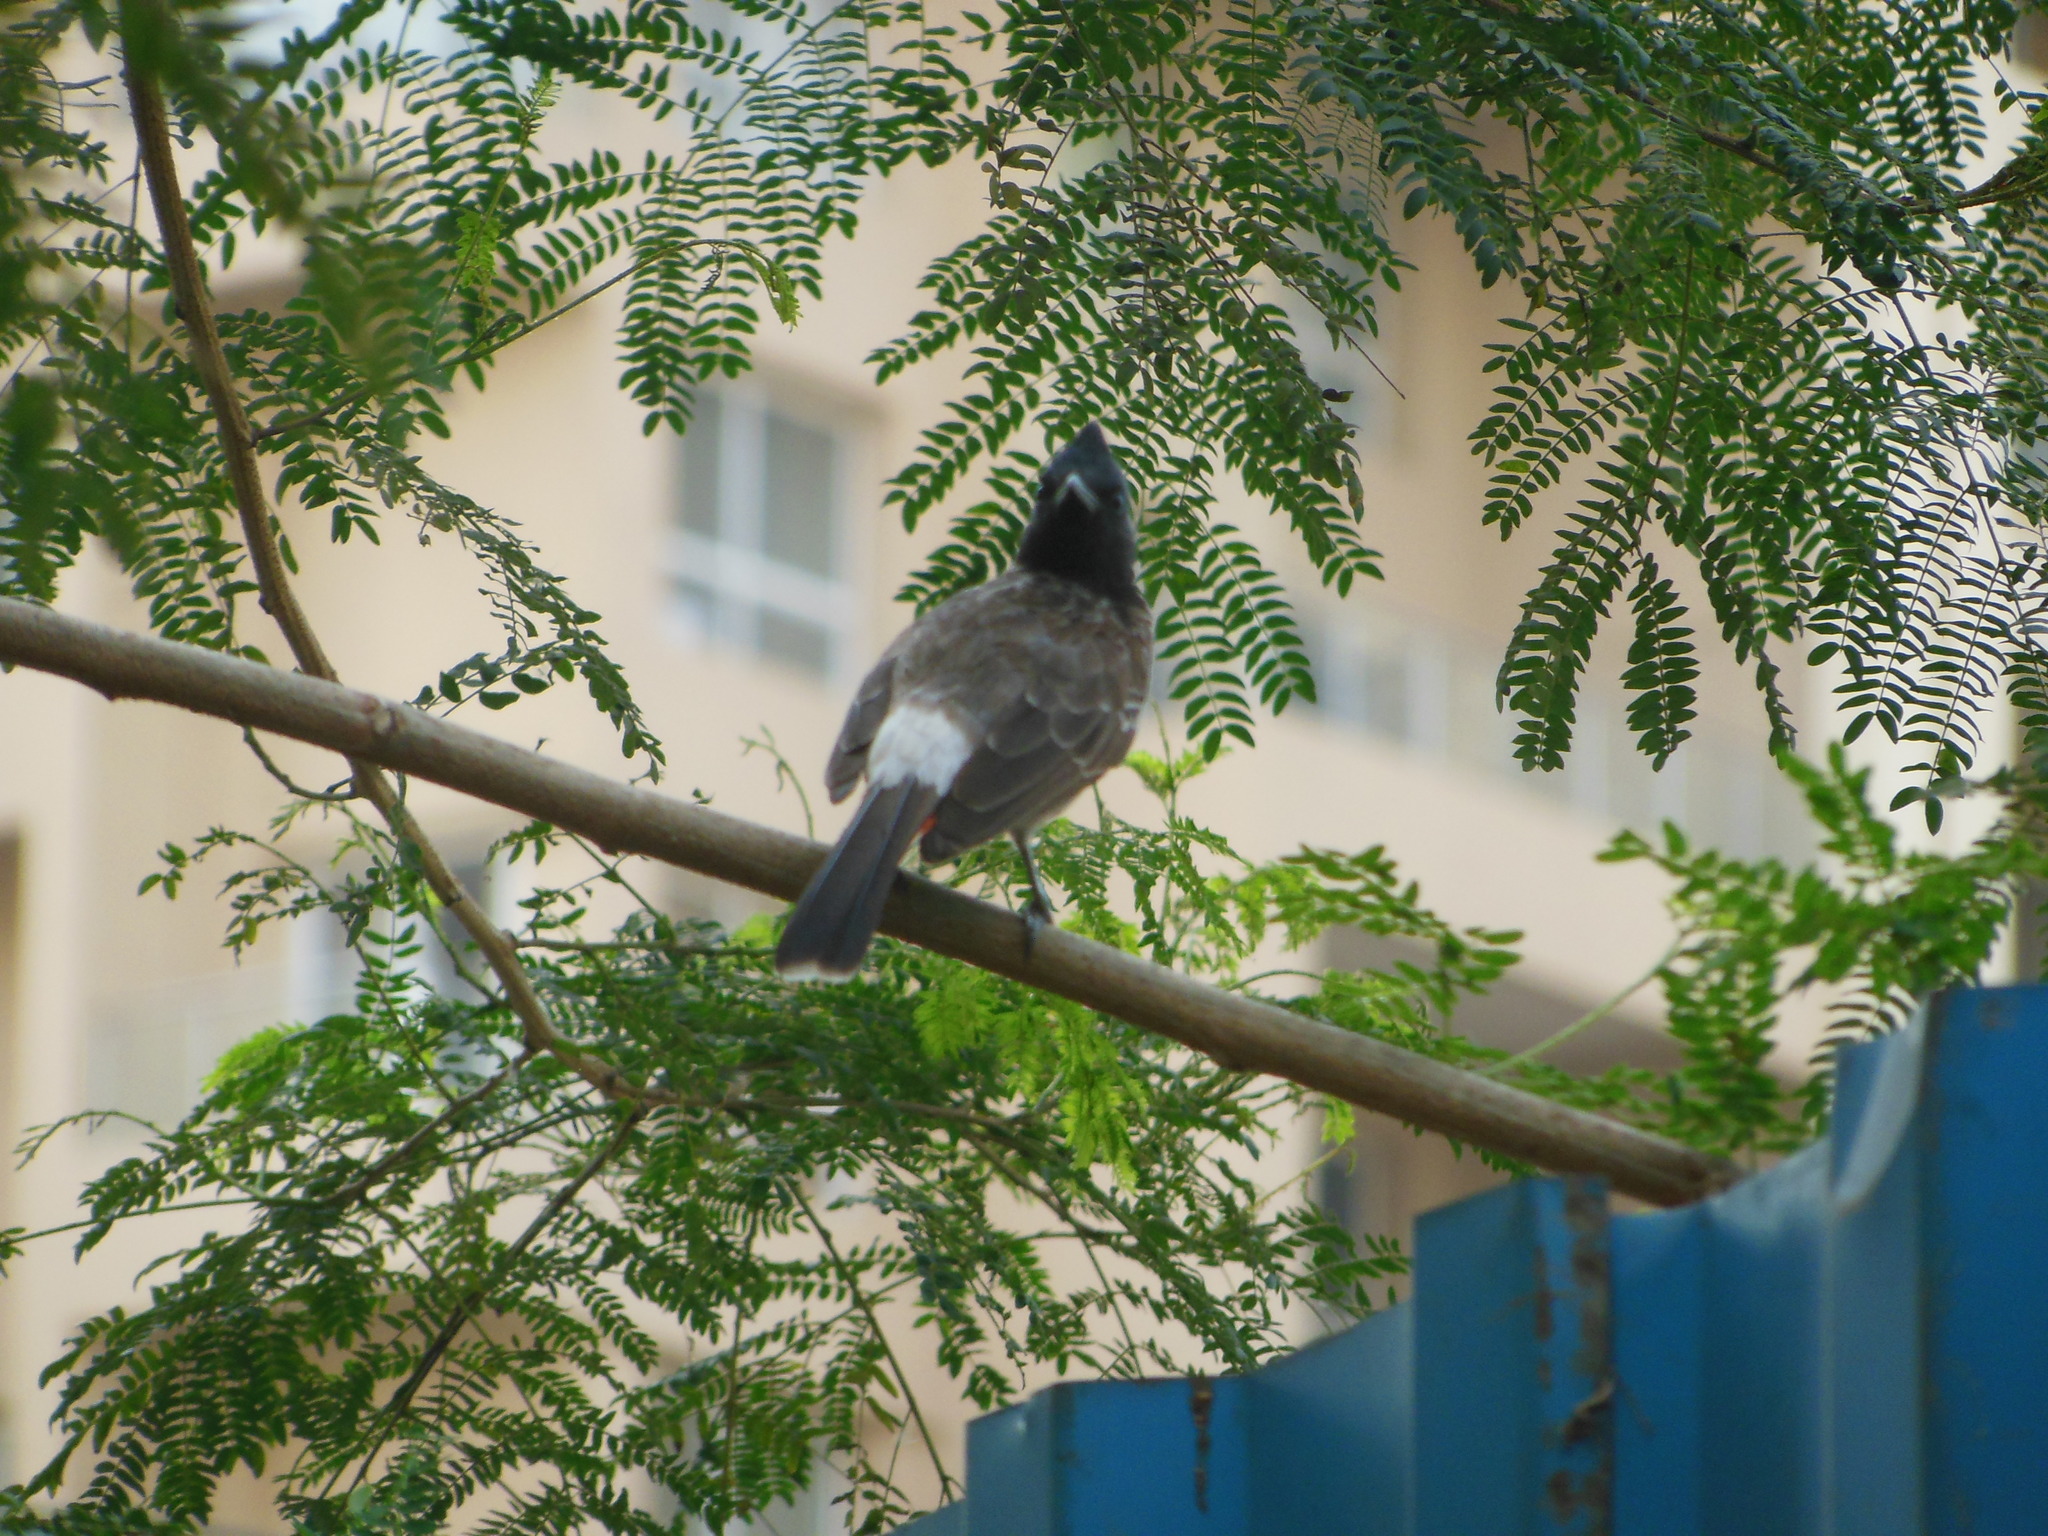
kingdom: Animalia
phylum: Chordata
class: Aves
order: Passeriformes
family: Pycnonotidae
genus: Pycnonotus
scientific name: Pycnonotus cafer
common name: Red-vented bulbul
